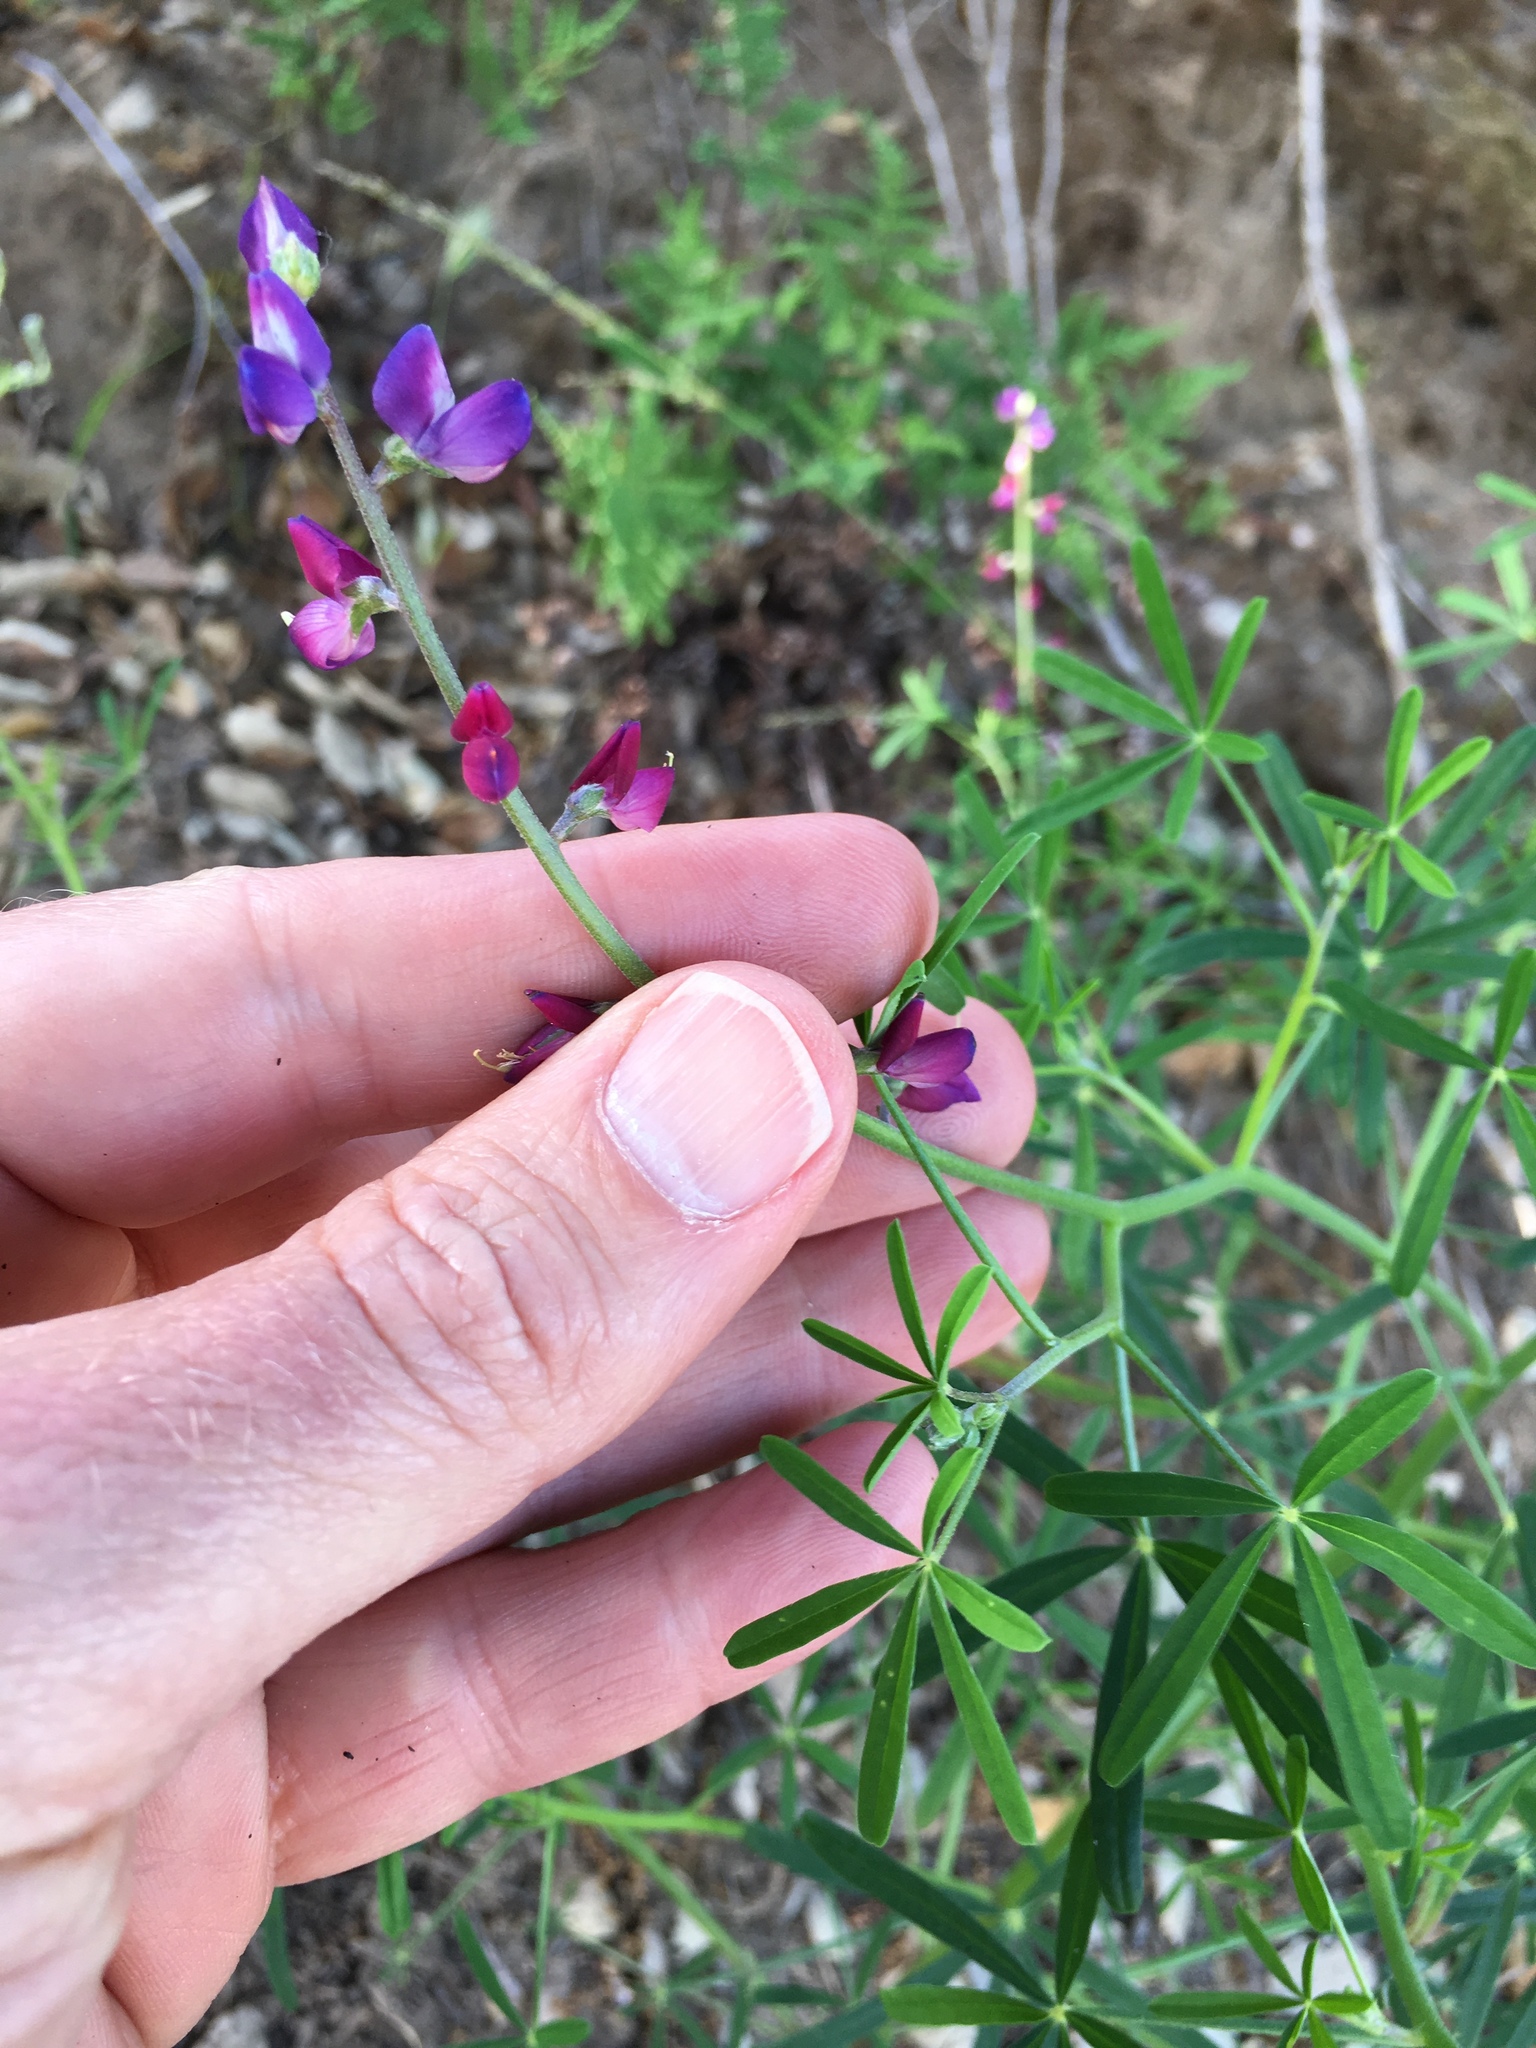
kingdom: Plantae
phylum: Tracheophyta
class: Magnoliopsida
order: Fabales
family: Fabaceae
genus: Lupinus
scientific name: Lupinus truncatus
